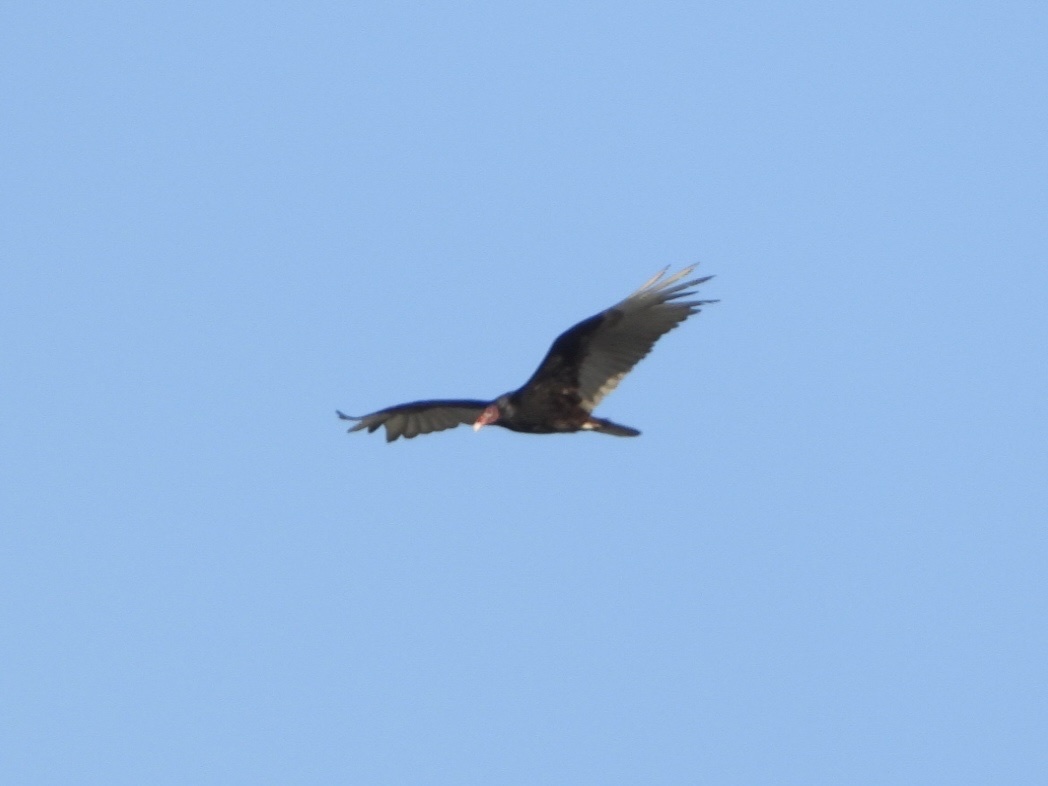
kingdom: Animalia
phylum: Chordata
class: Aves
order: Accipitriformes
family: Cathartidae
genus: Cathartes
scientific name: Cathartes aura
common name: Turkey vulture
